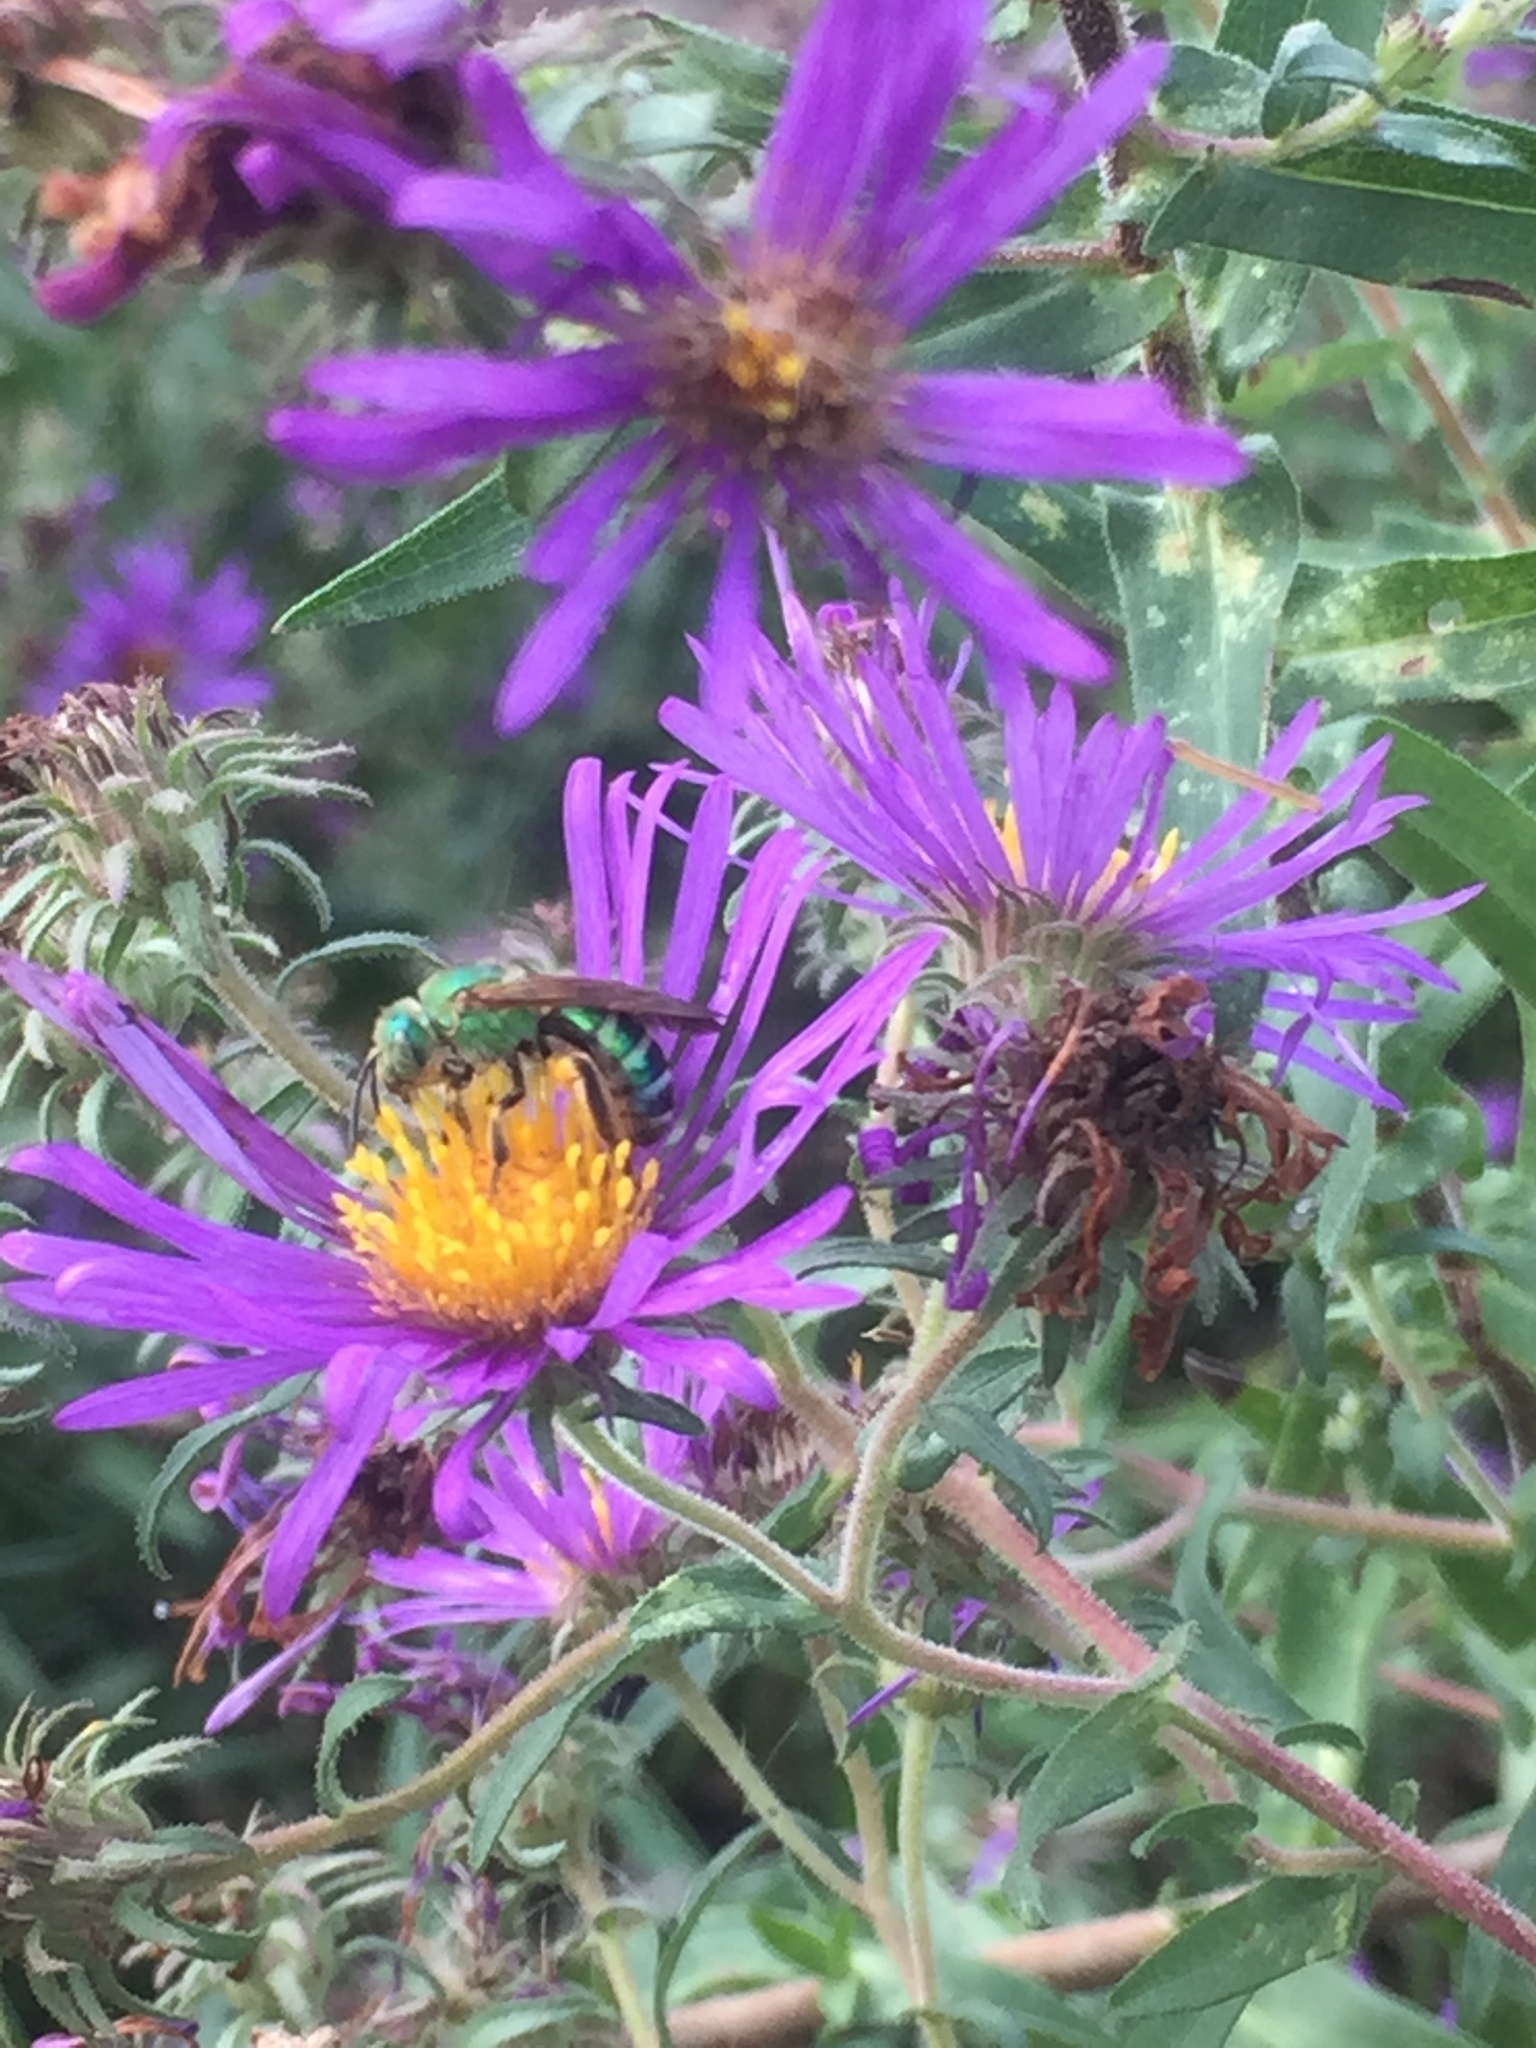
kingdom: Animalia
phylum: Arthropoda
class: Insecta
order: Hymenoptera
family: Halictidae
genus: Agapostemon
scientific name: Agapostemon splendens
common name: Brown-winged striped sweat bee
